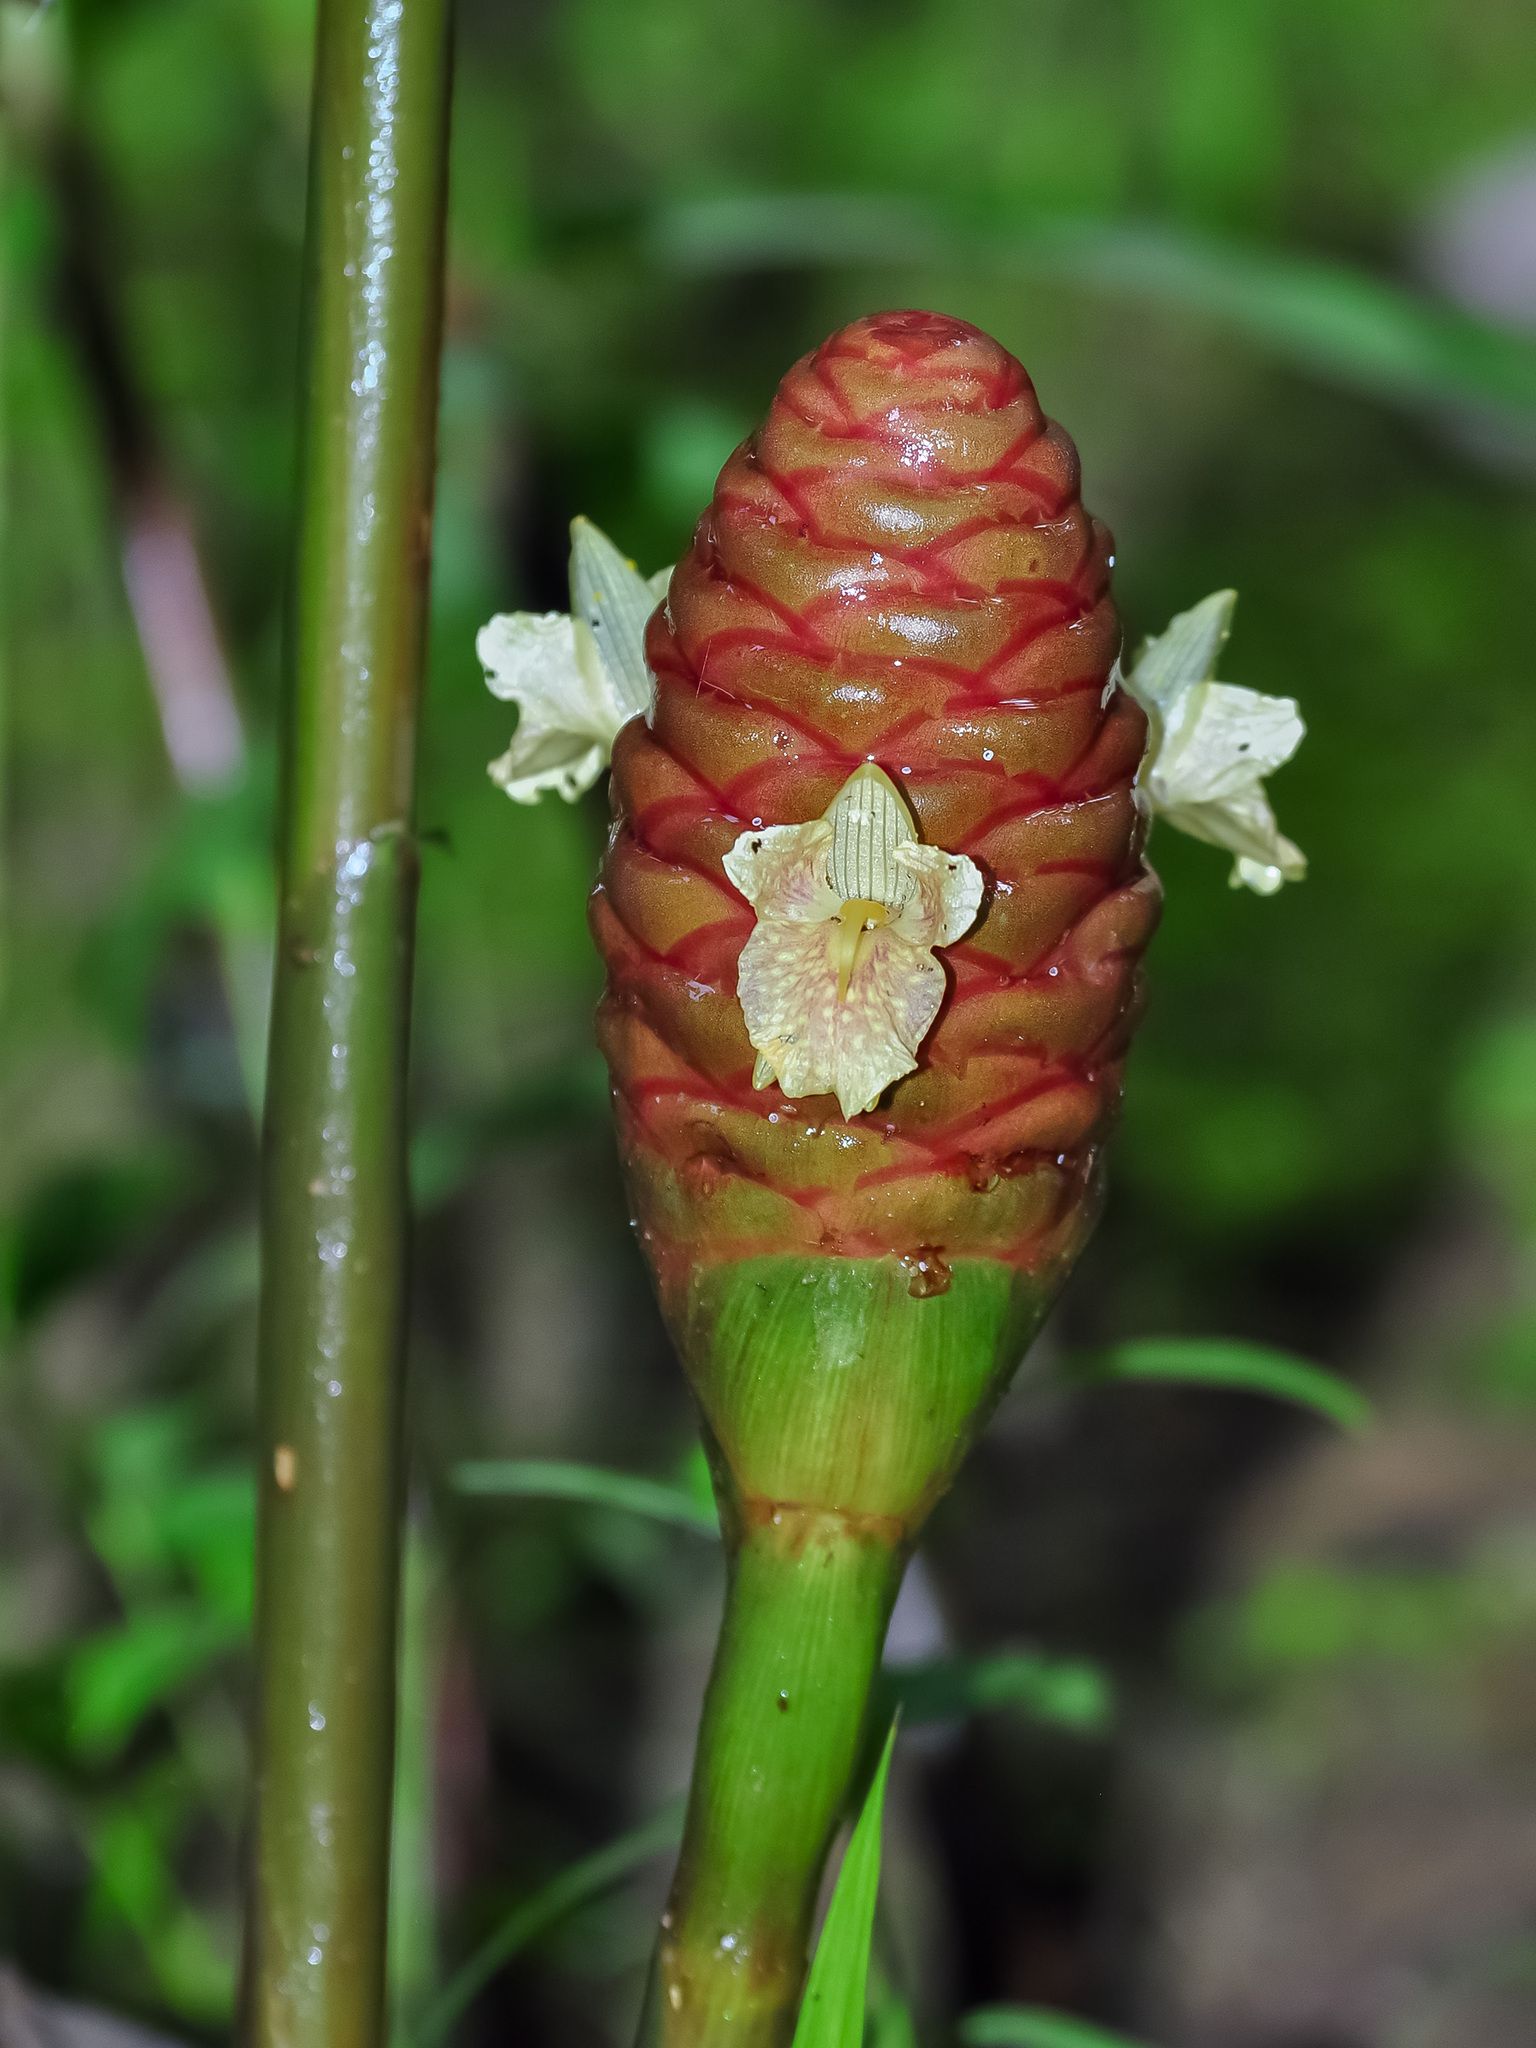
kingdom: Plantae
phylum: Tracheophyta
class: Liliopsida
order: Zingiberales
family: Zingiberaceae
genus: Zingiber
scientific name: Zingiber ottensii
